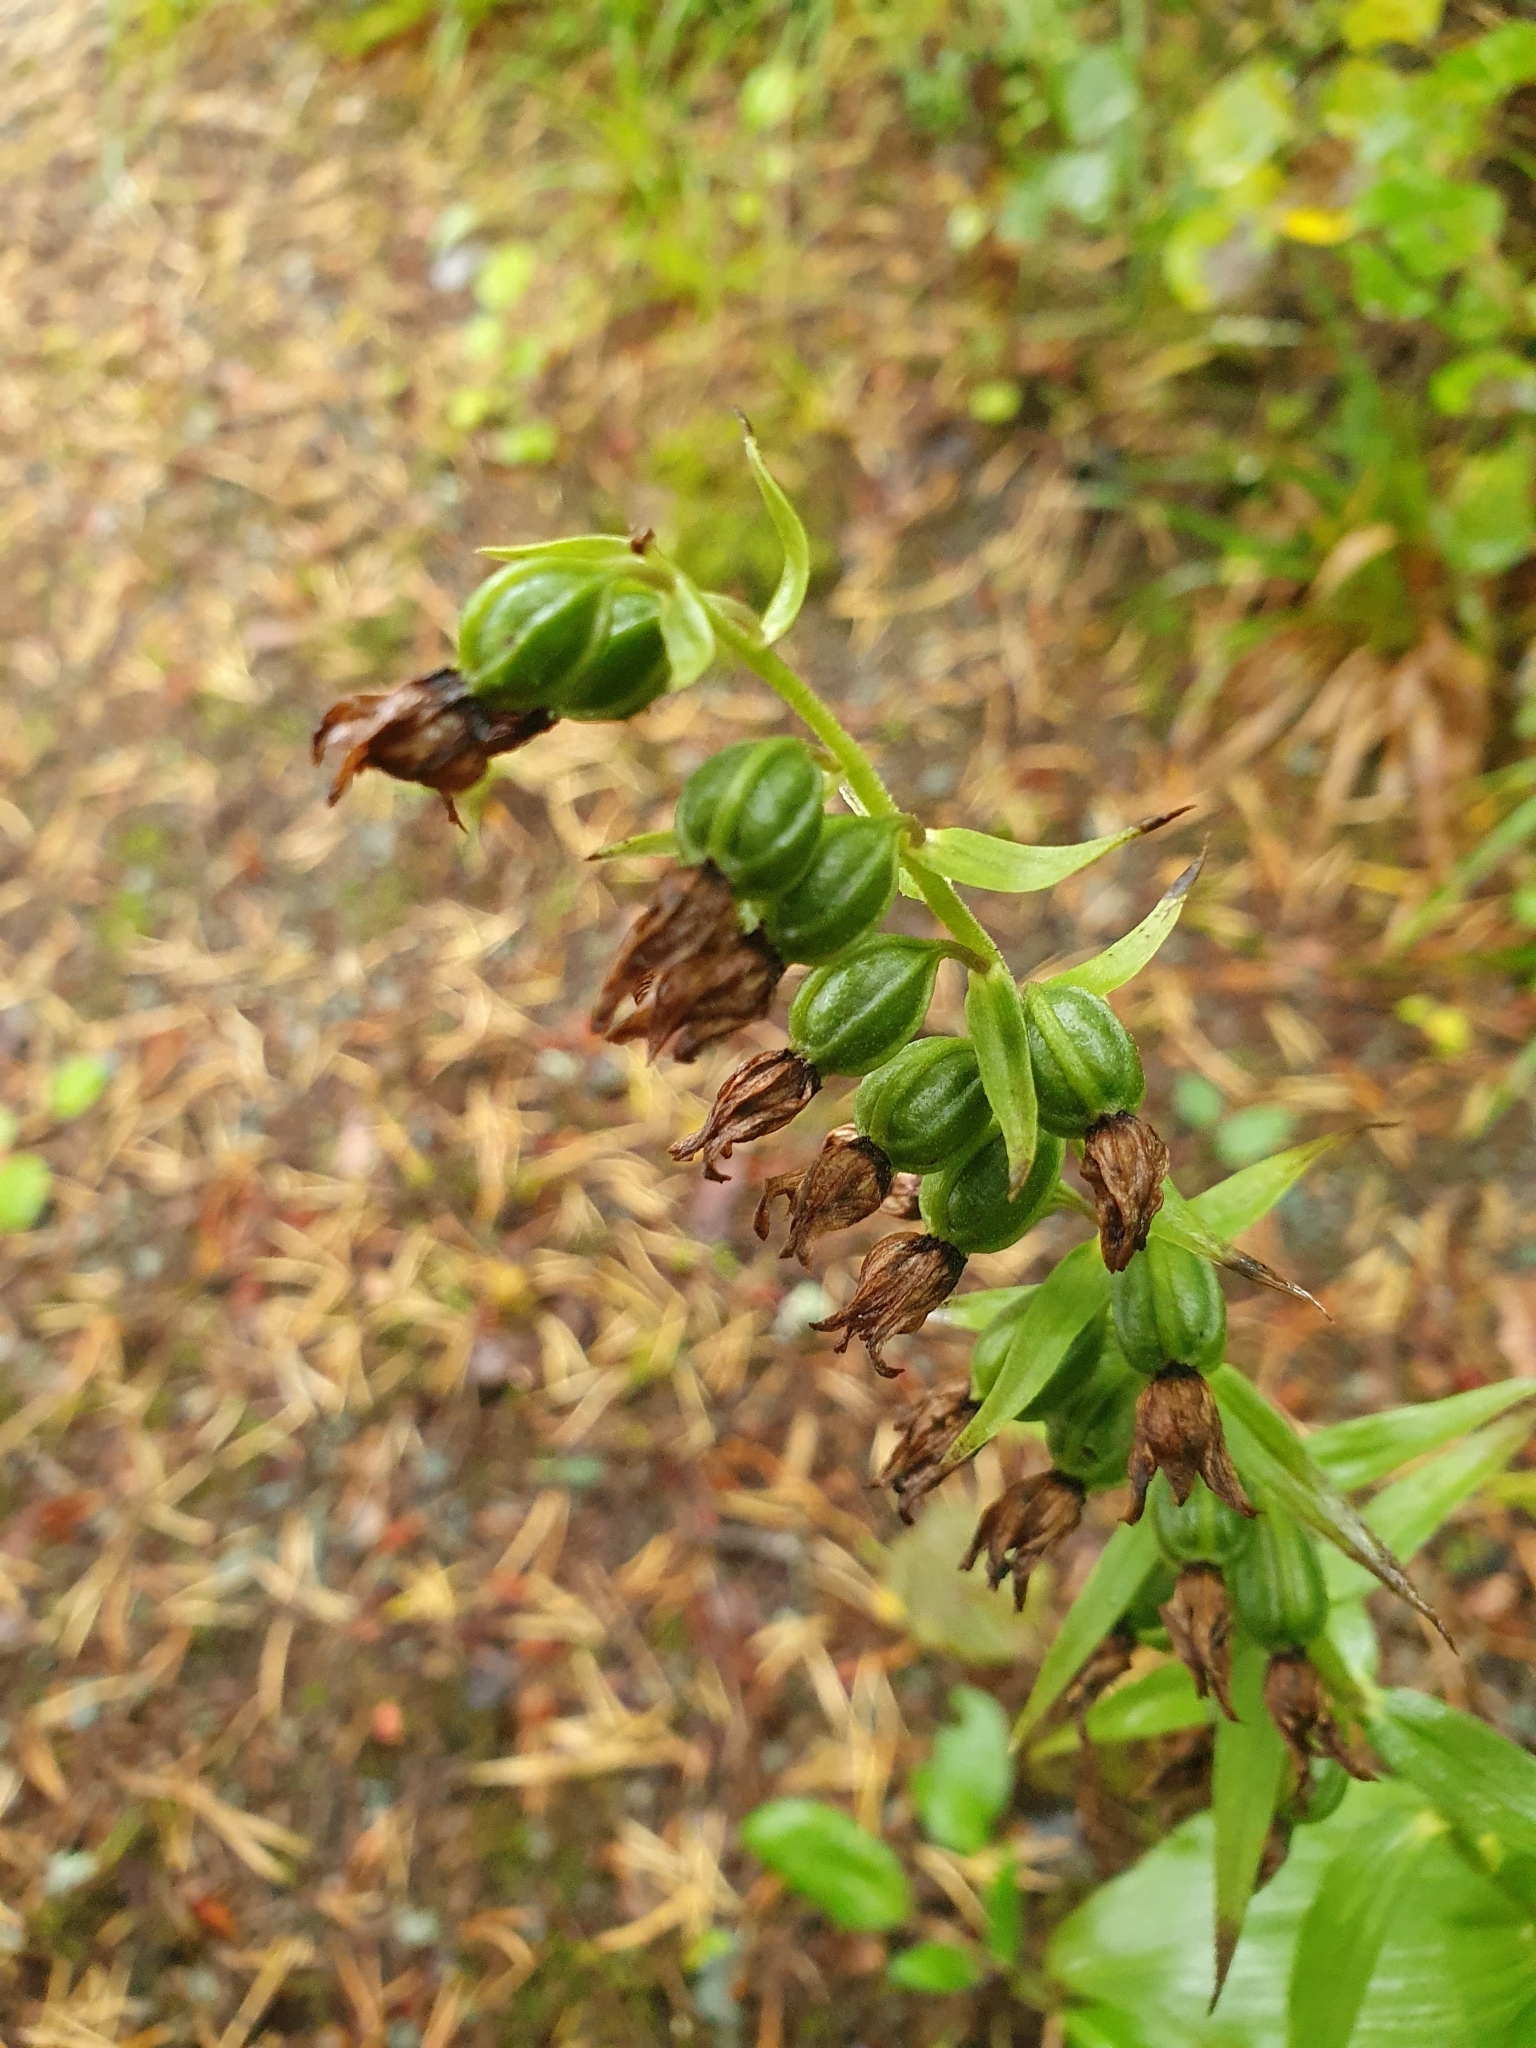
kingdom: Plantae
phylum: Tracheophyta
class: Liliopsida
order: Asparagales
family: Orchidaceae
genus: Epipactis
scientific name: Epipactis helleborine
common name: Broad-leaved helleborine
